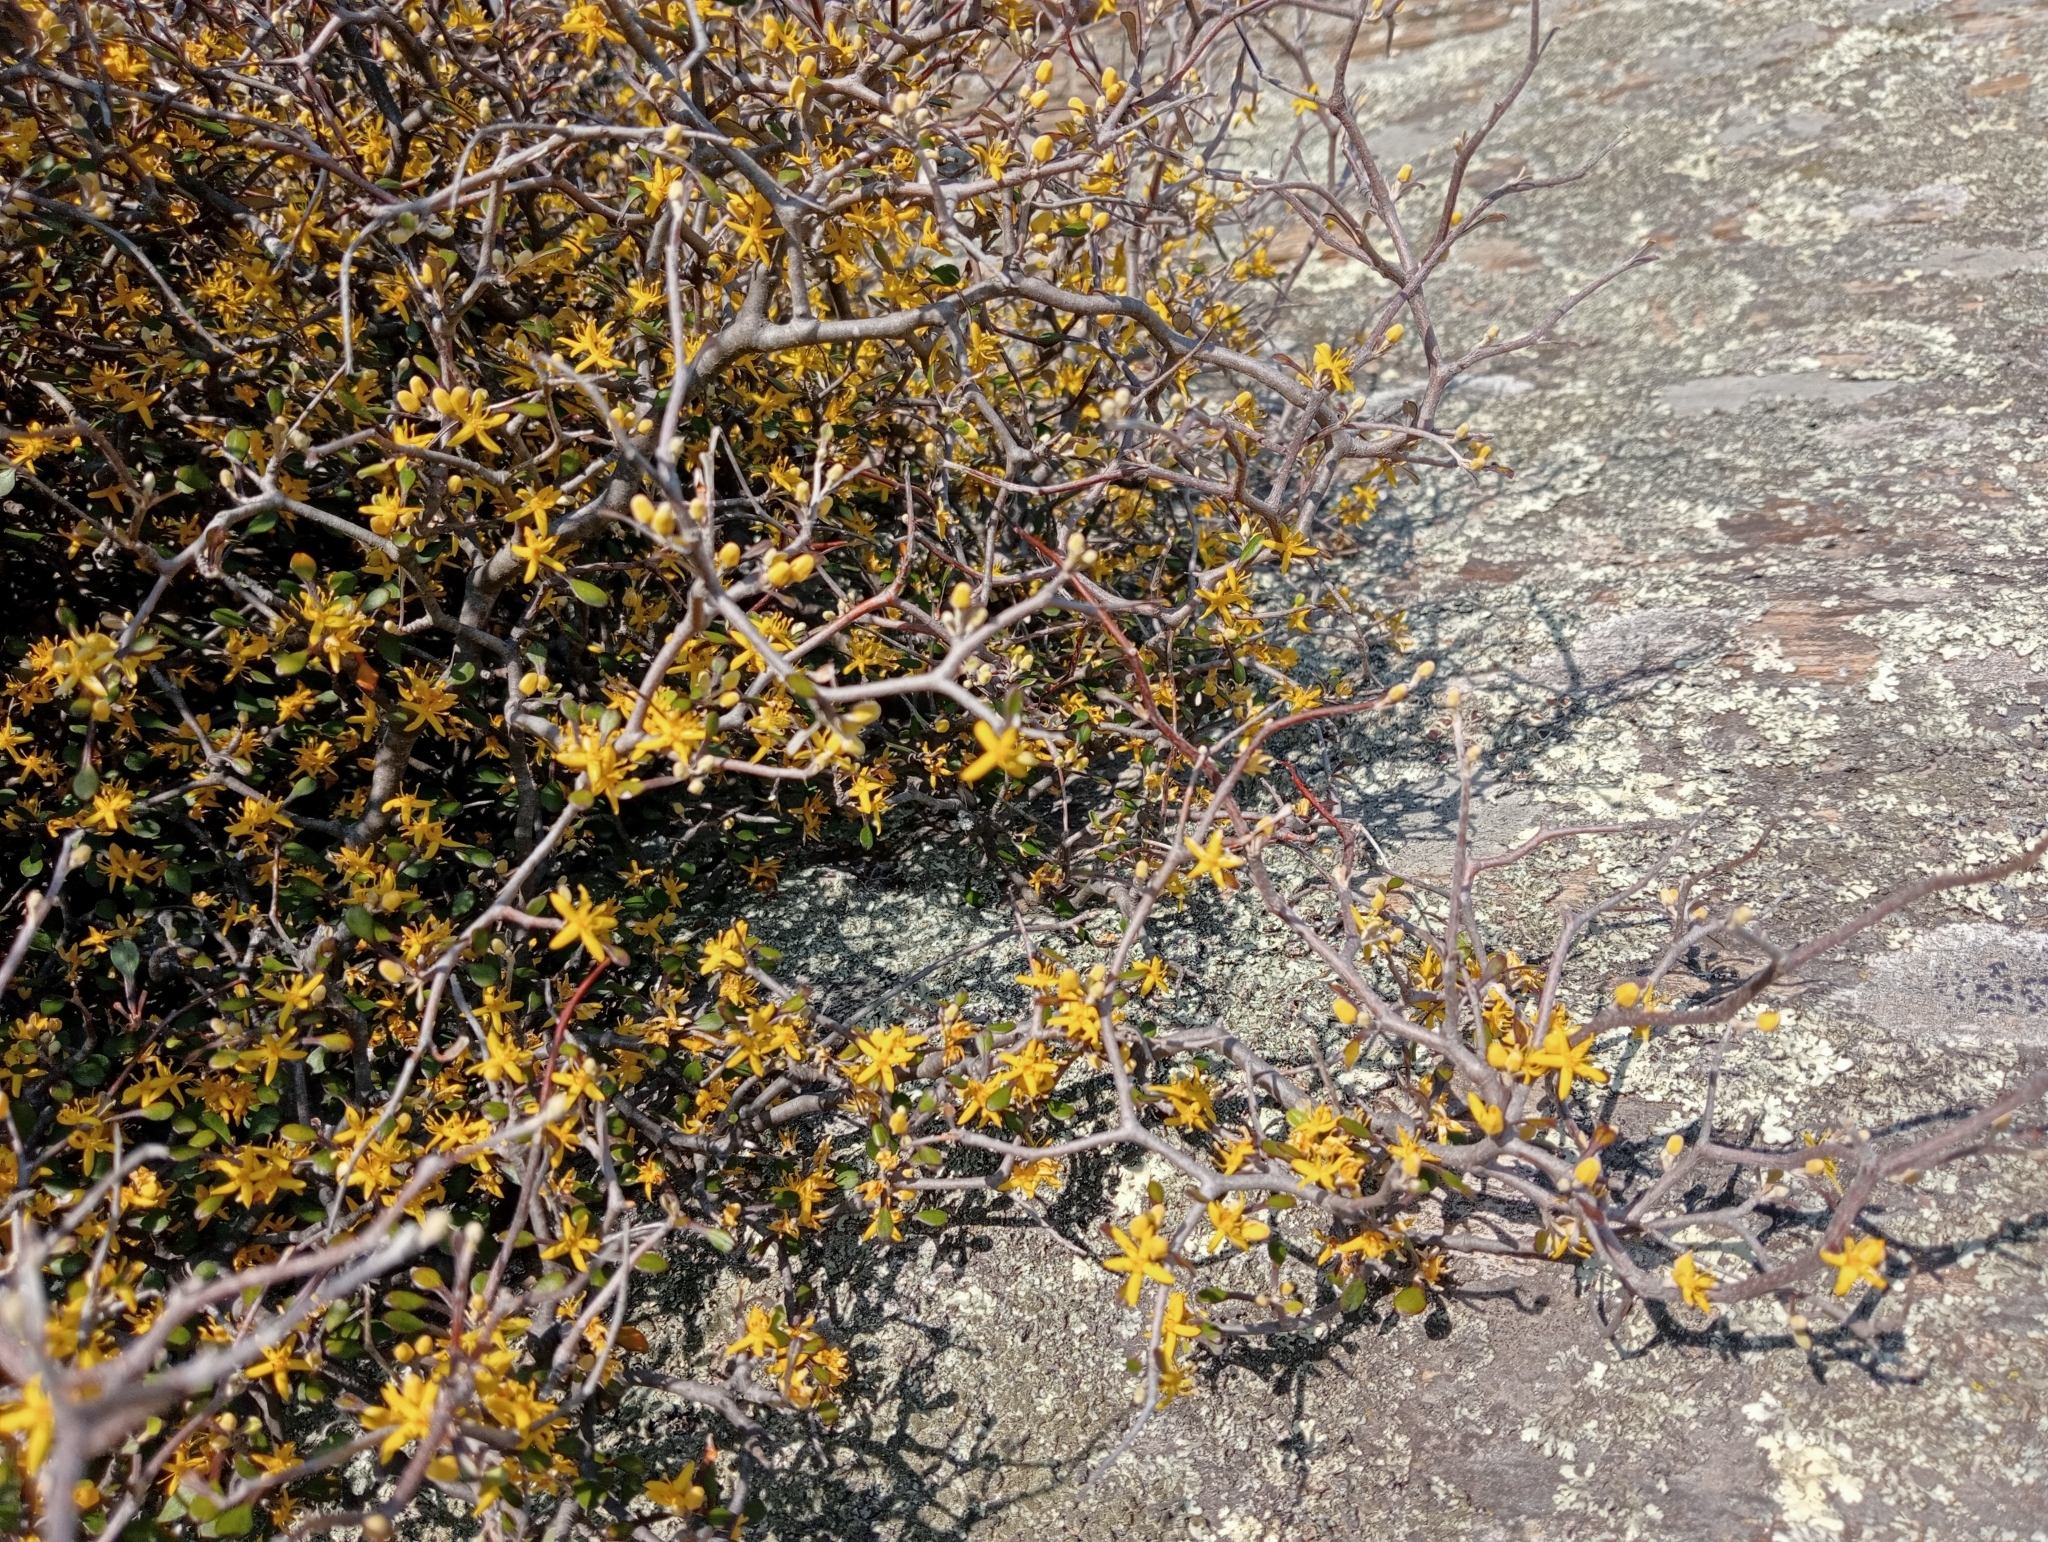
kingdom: Plantae
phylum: Tracheophyta
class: Magnoliopsida
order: Asterales
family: Argophyllaceae
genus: Corokia
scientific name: Corokia cotoneaster
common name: Wire nettingbush
